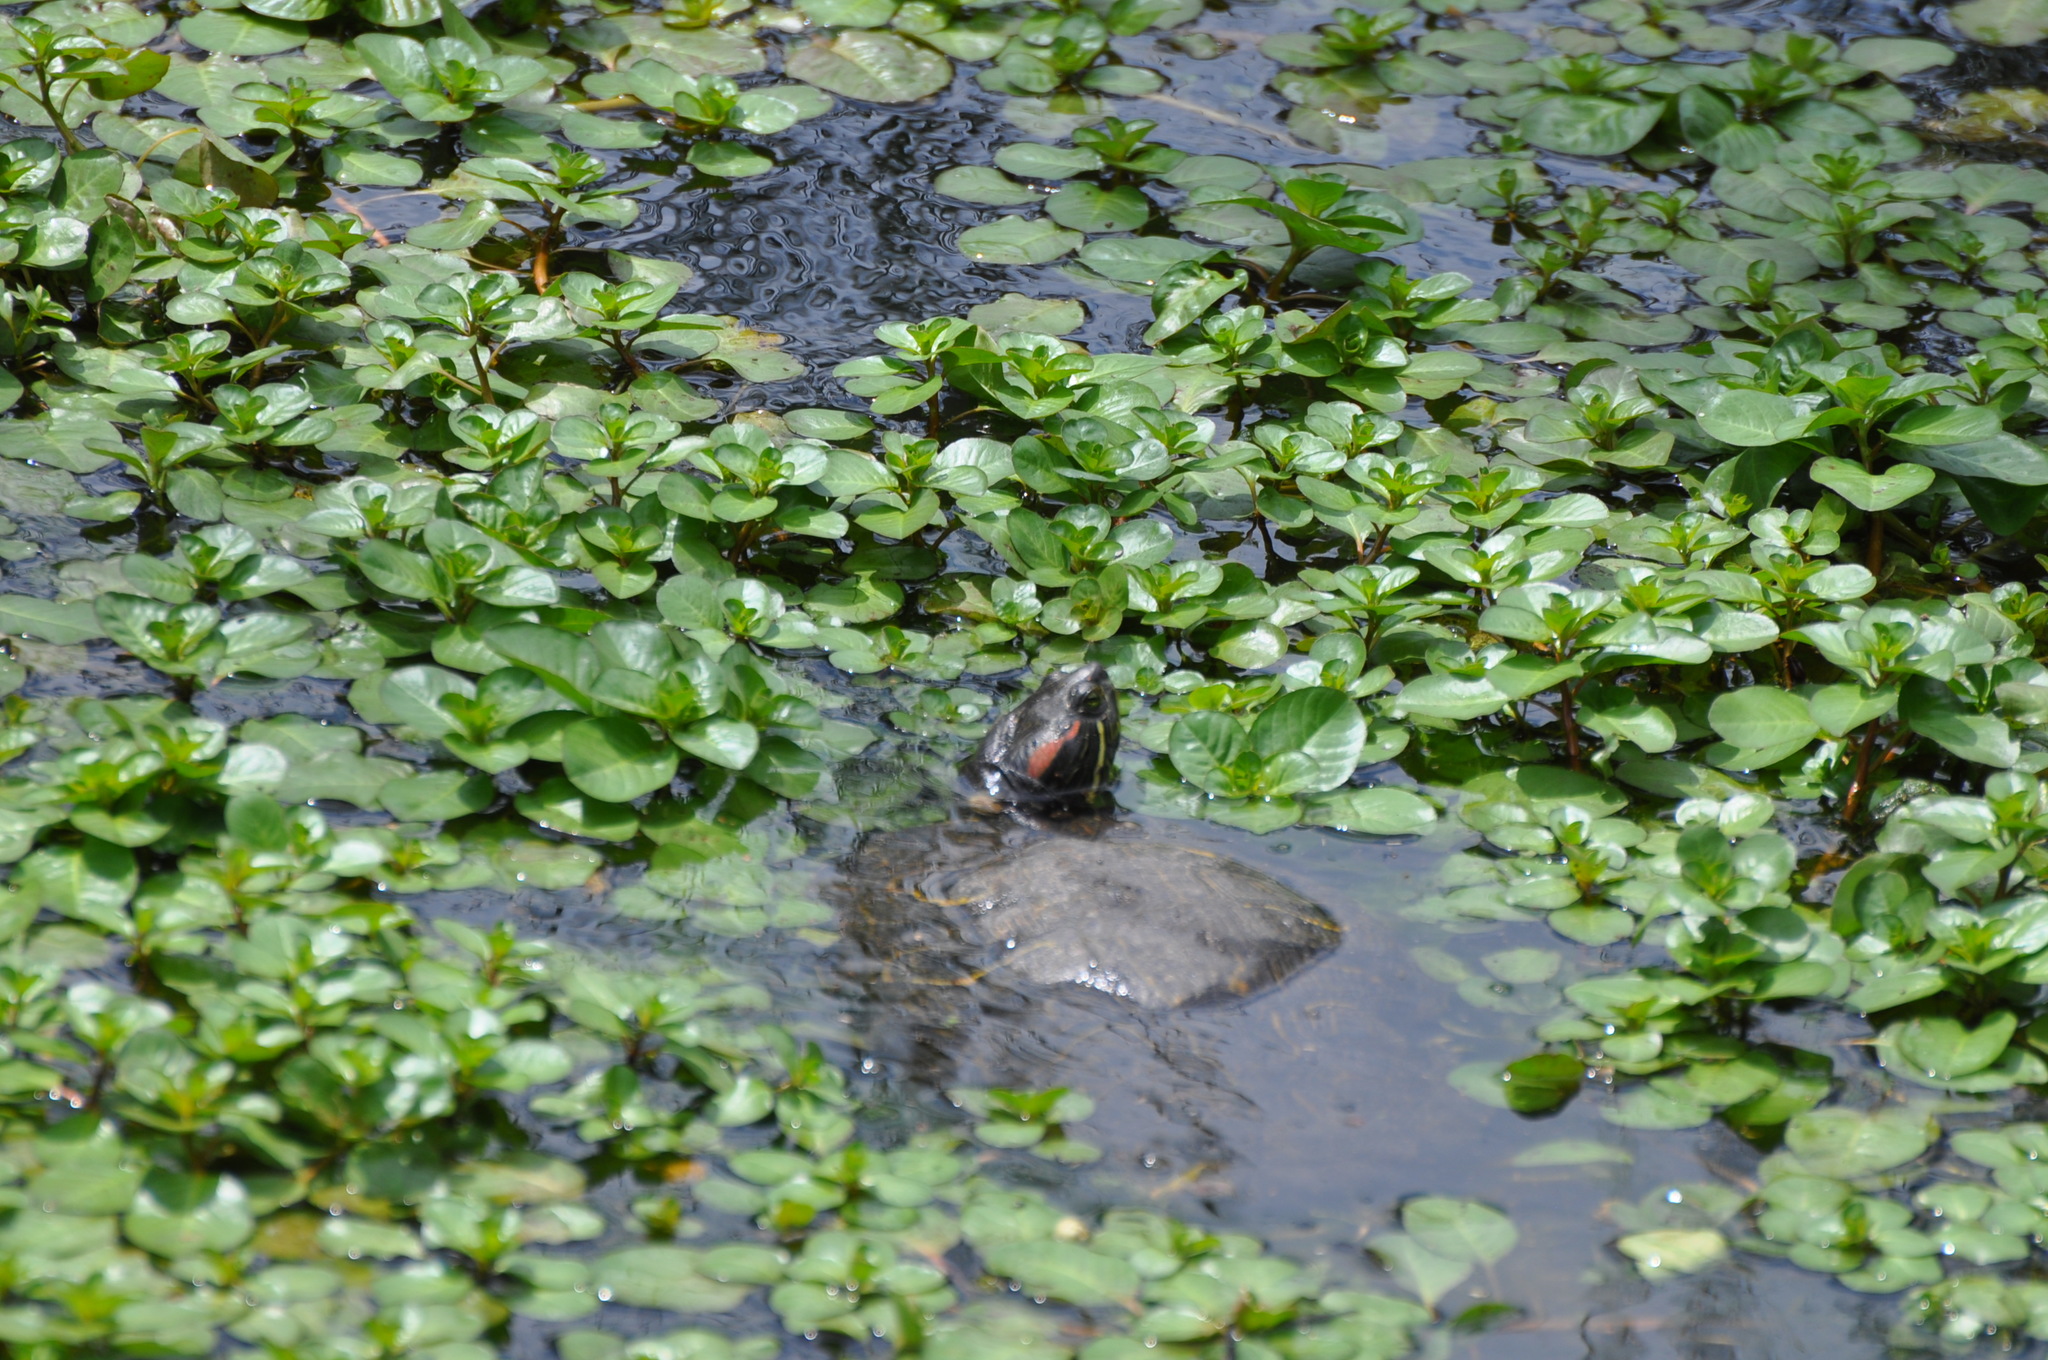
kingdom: Animalia
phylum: Chordata
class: Testudines
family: Emydidae
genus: Trachemys
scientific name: Trachemys scripta
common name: Slider
